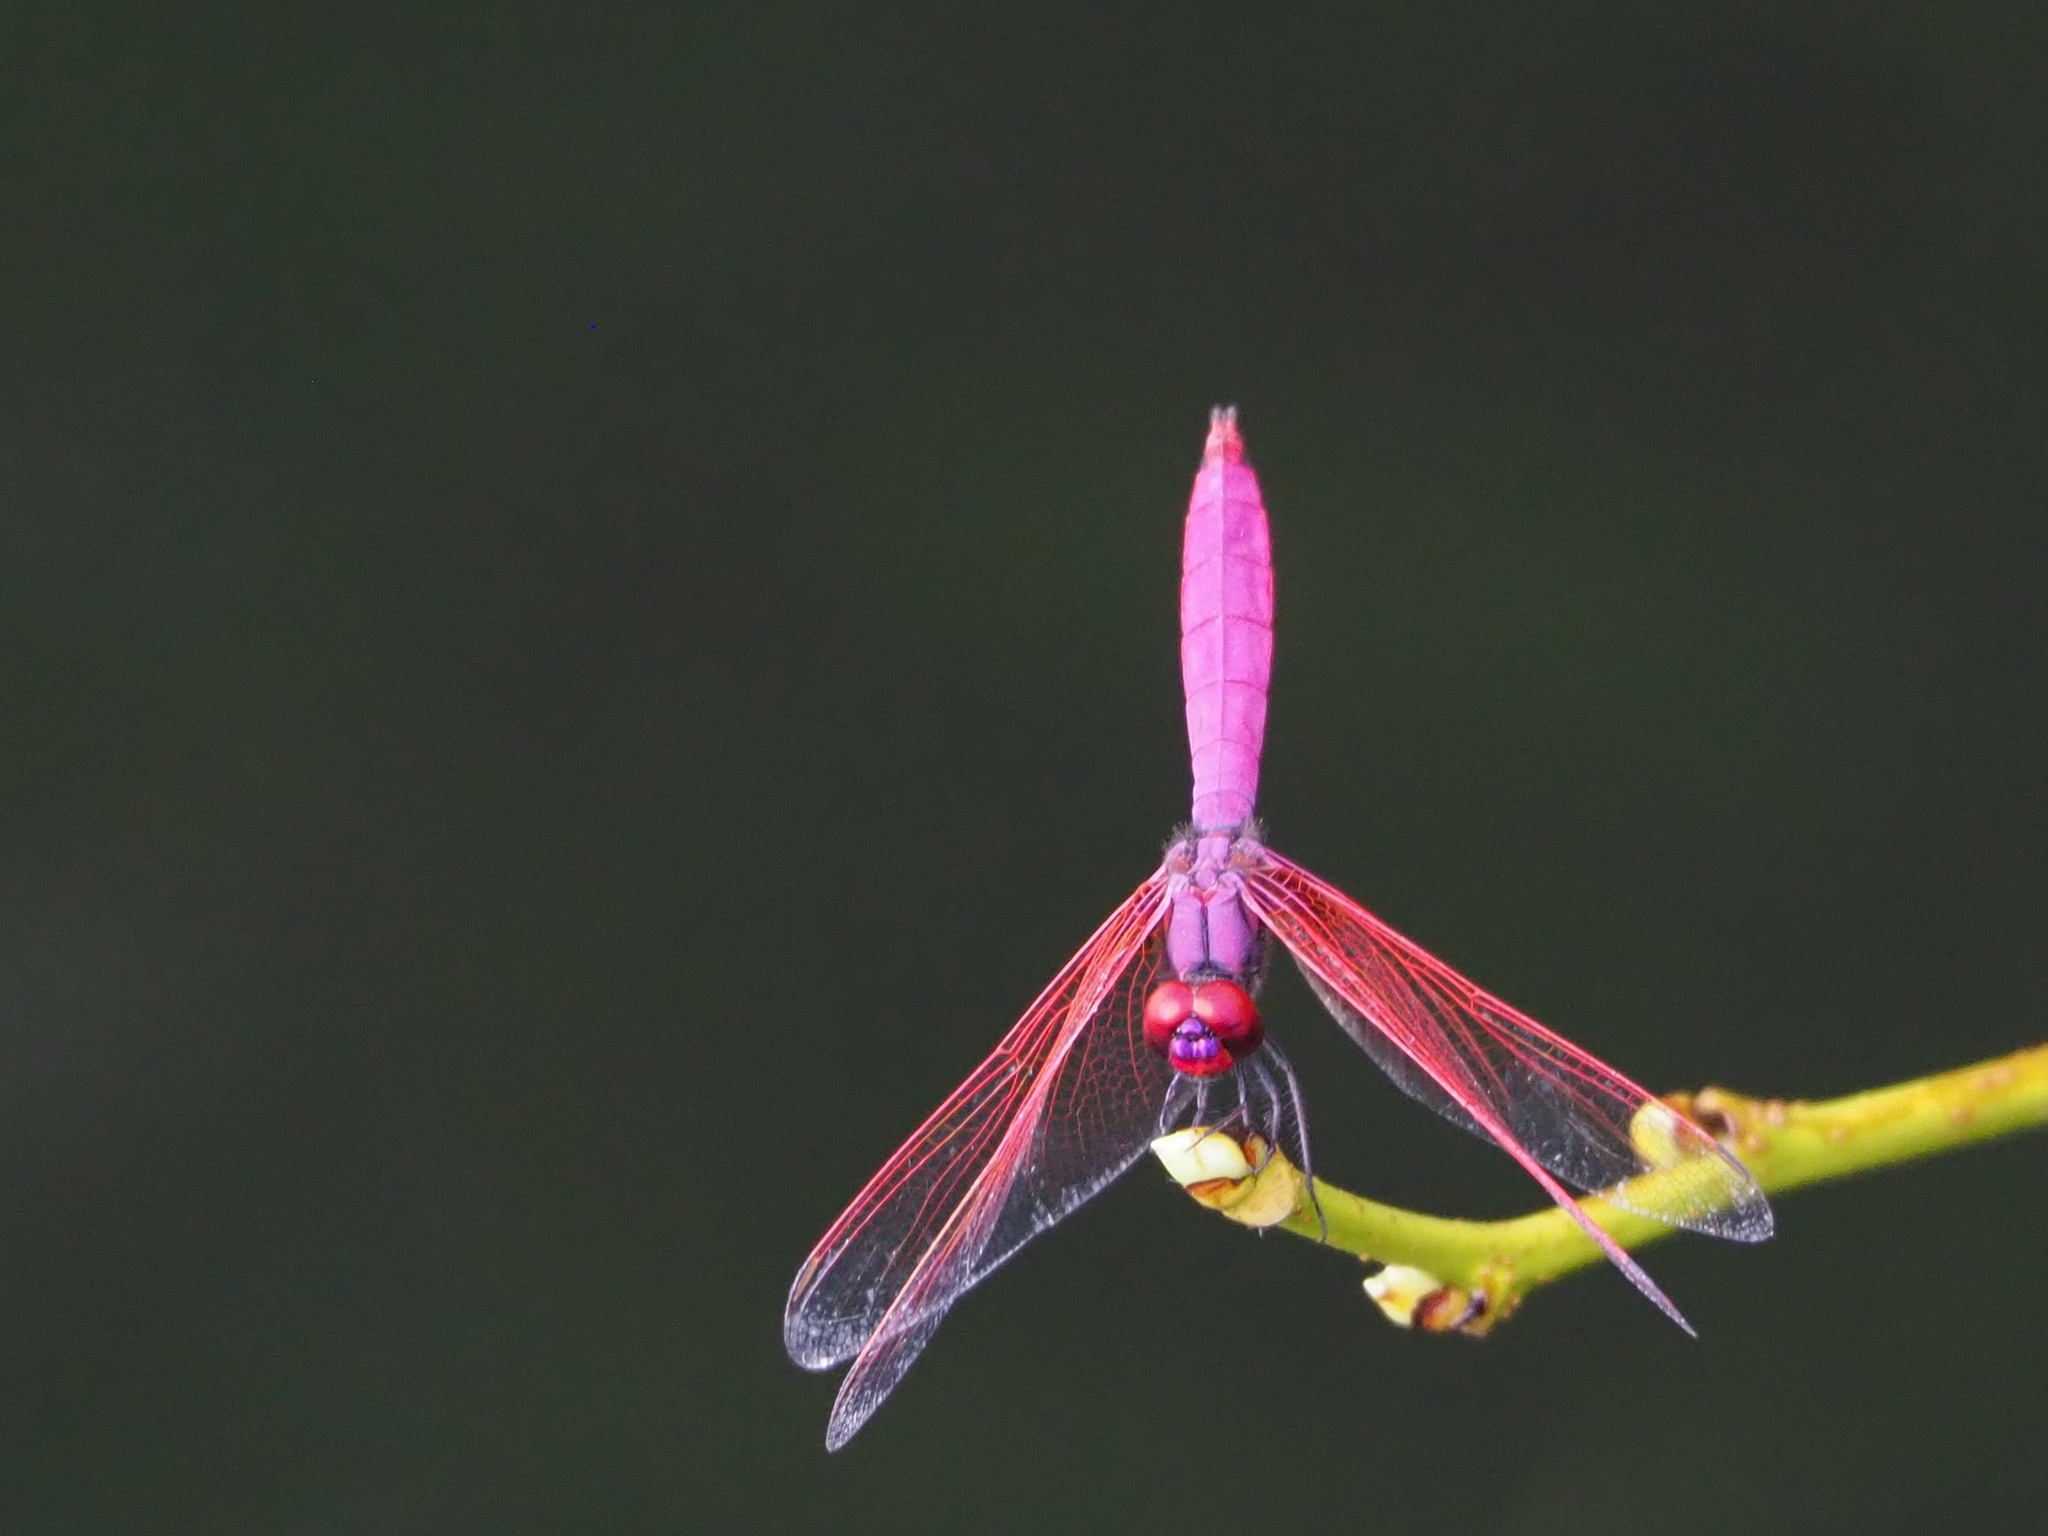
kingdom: Animalia
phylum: Arthropoda
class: Insecta
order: Odonata
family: Libellulidae
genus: Trithemis
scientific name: Trithemis aurora
